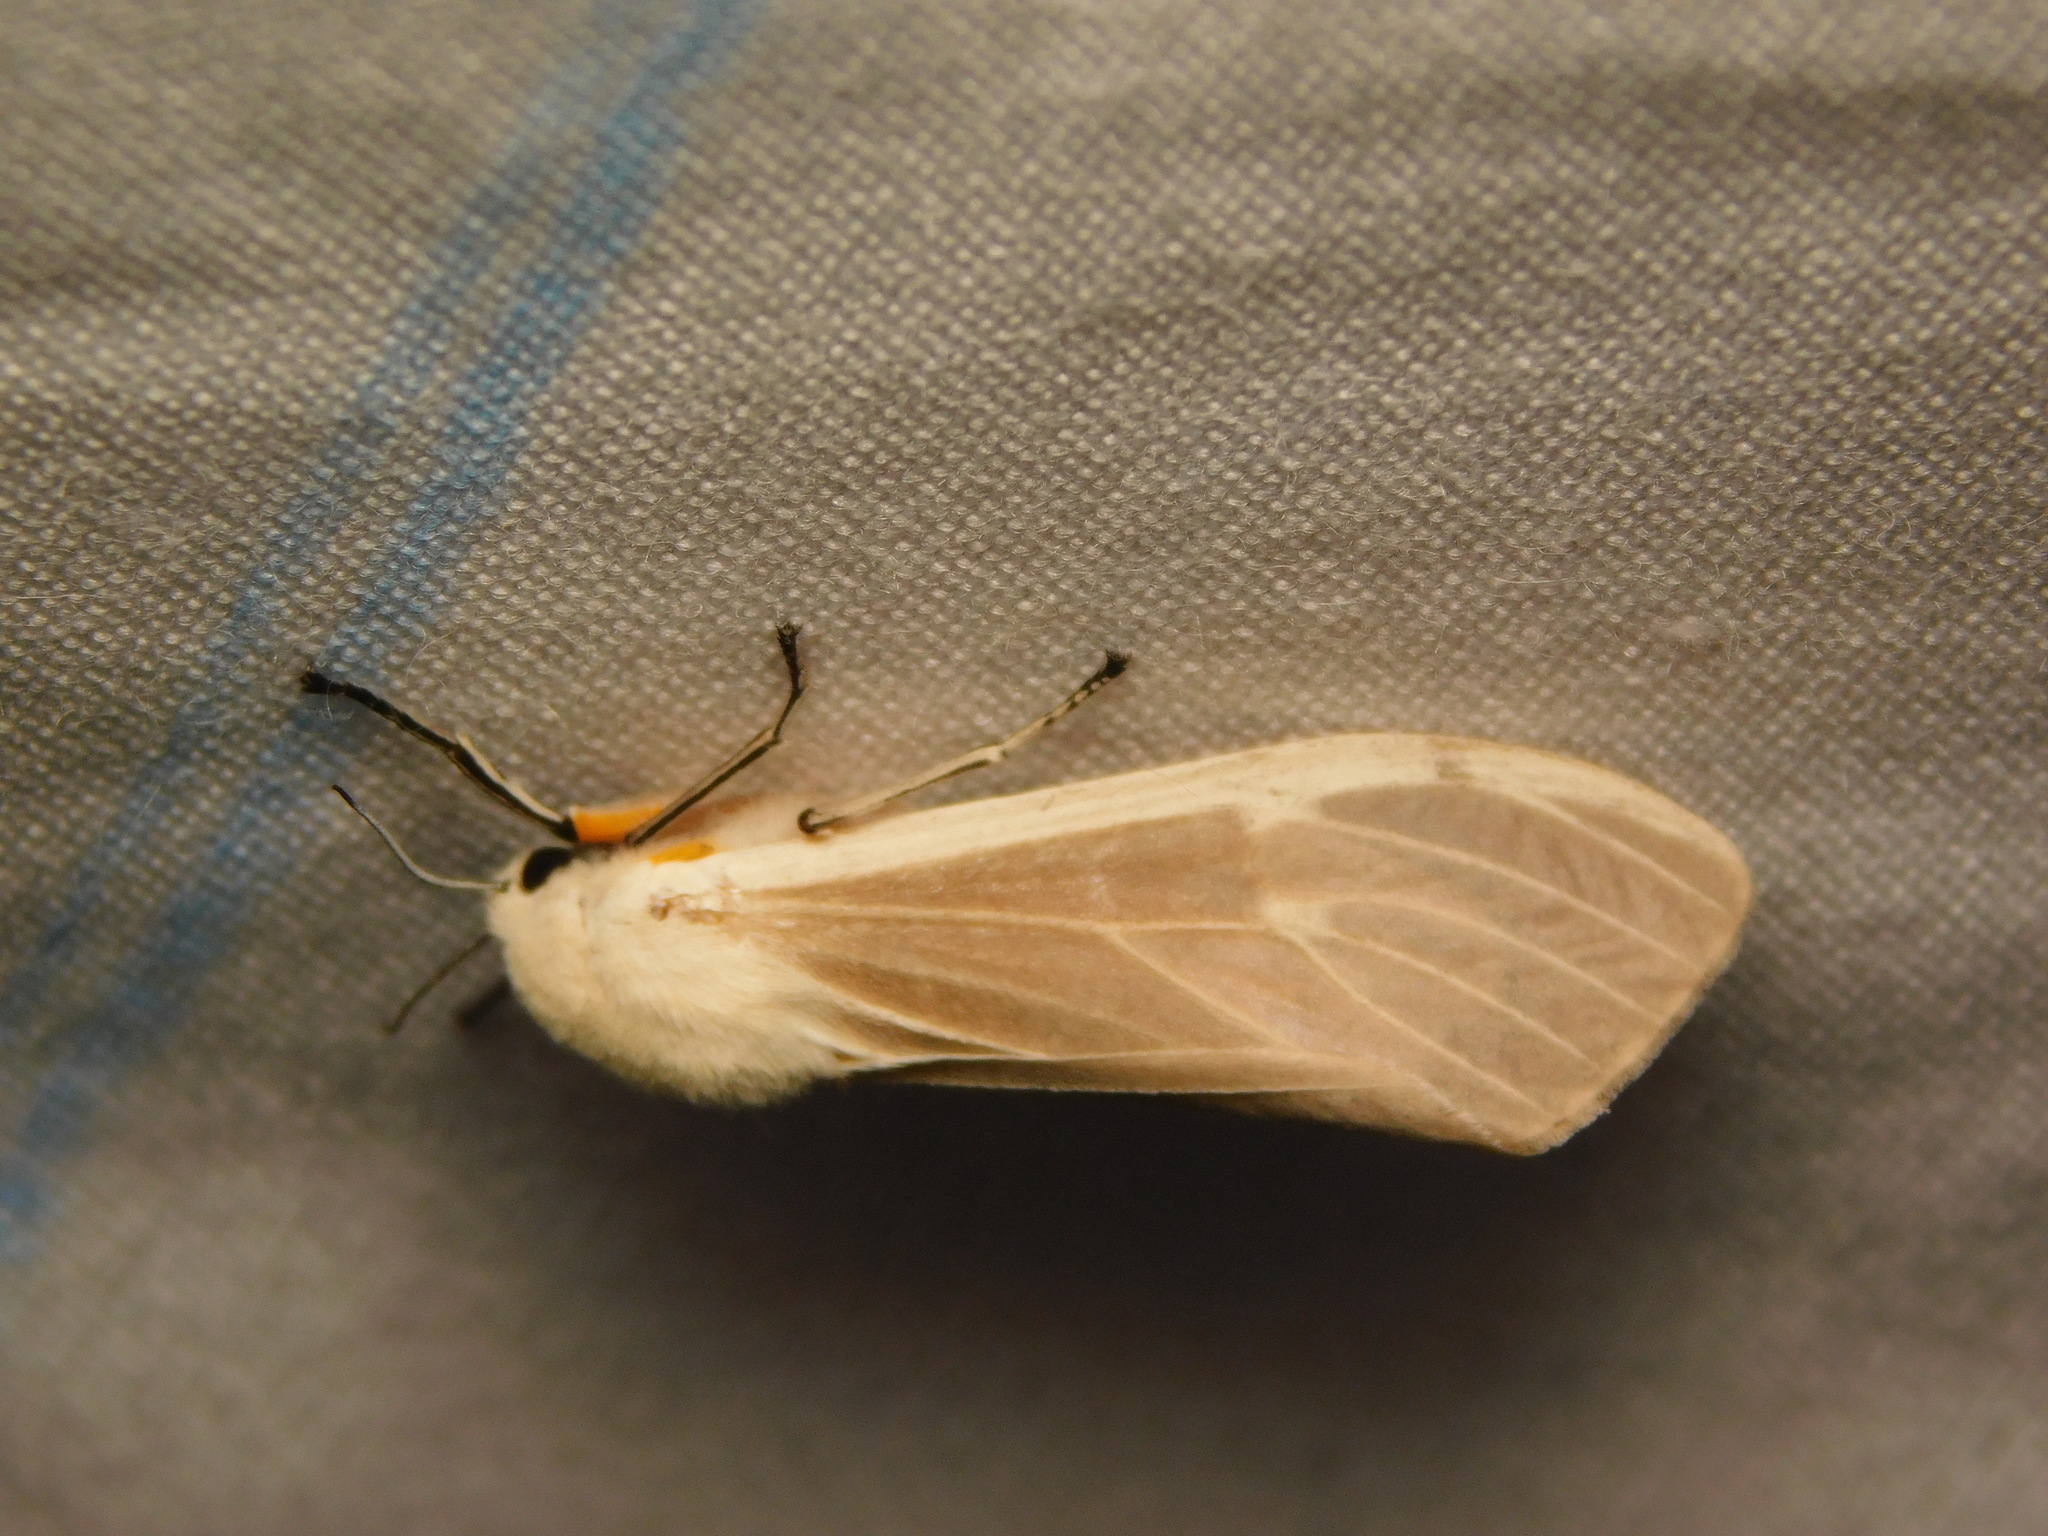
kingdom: Animalia
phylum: Arthropoda
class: Insecta
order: Lepidoptera
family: Erebidae
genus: Creatonotos
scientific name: Creatonotos transiens
